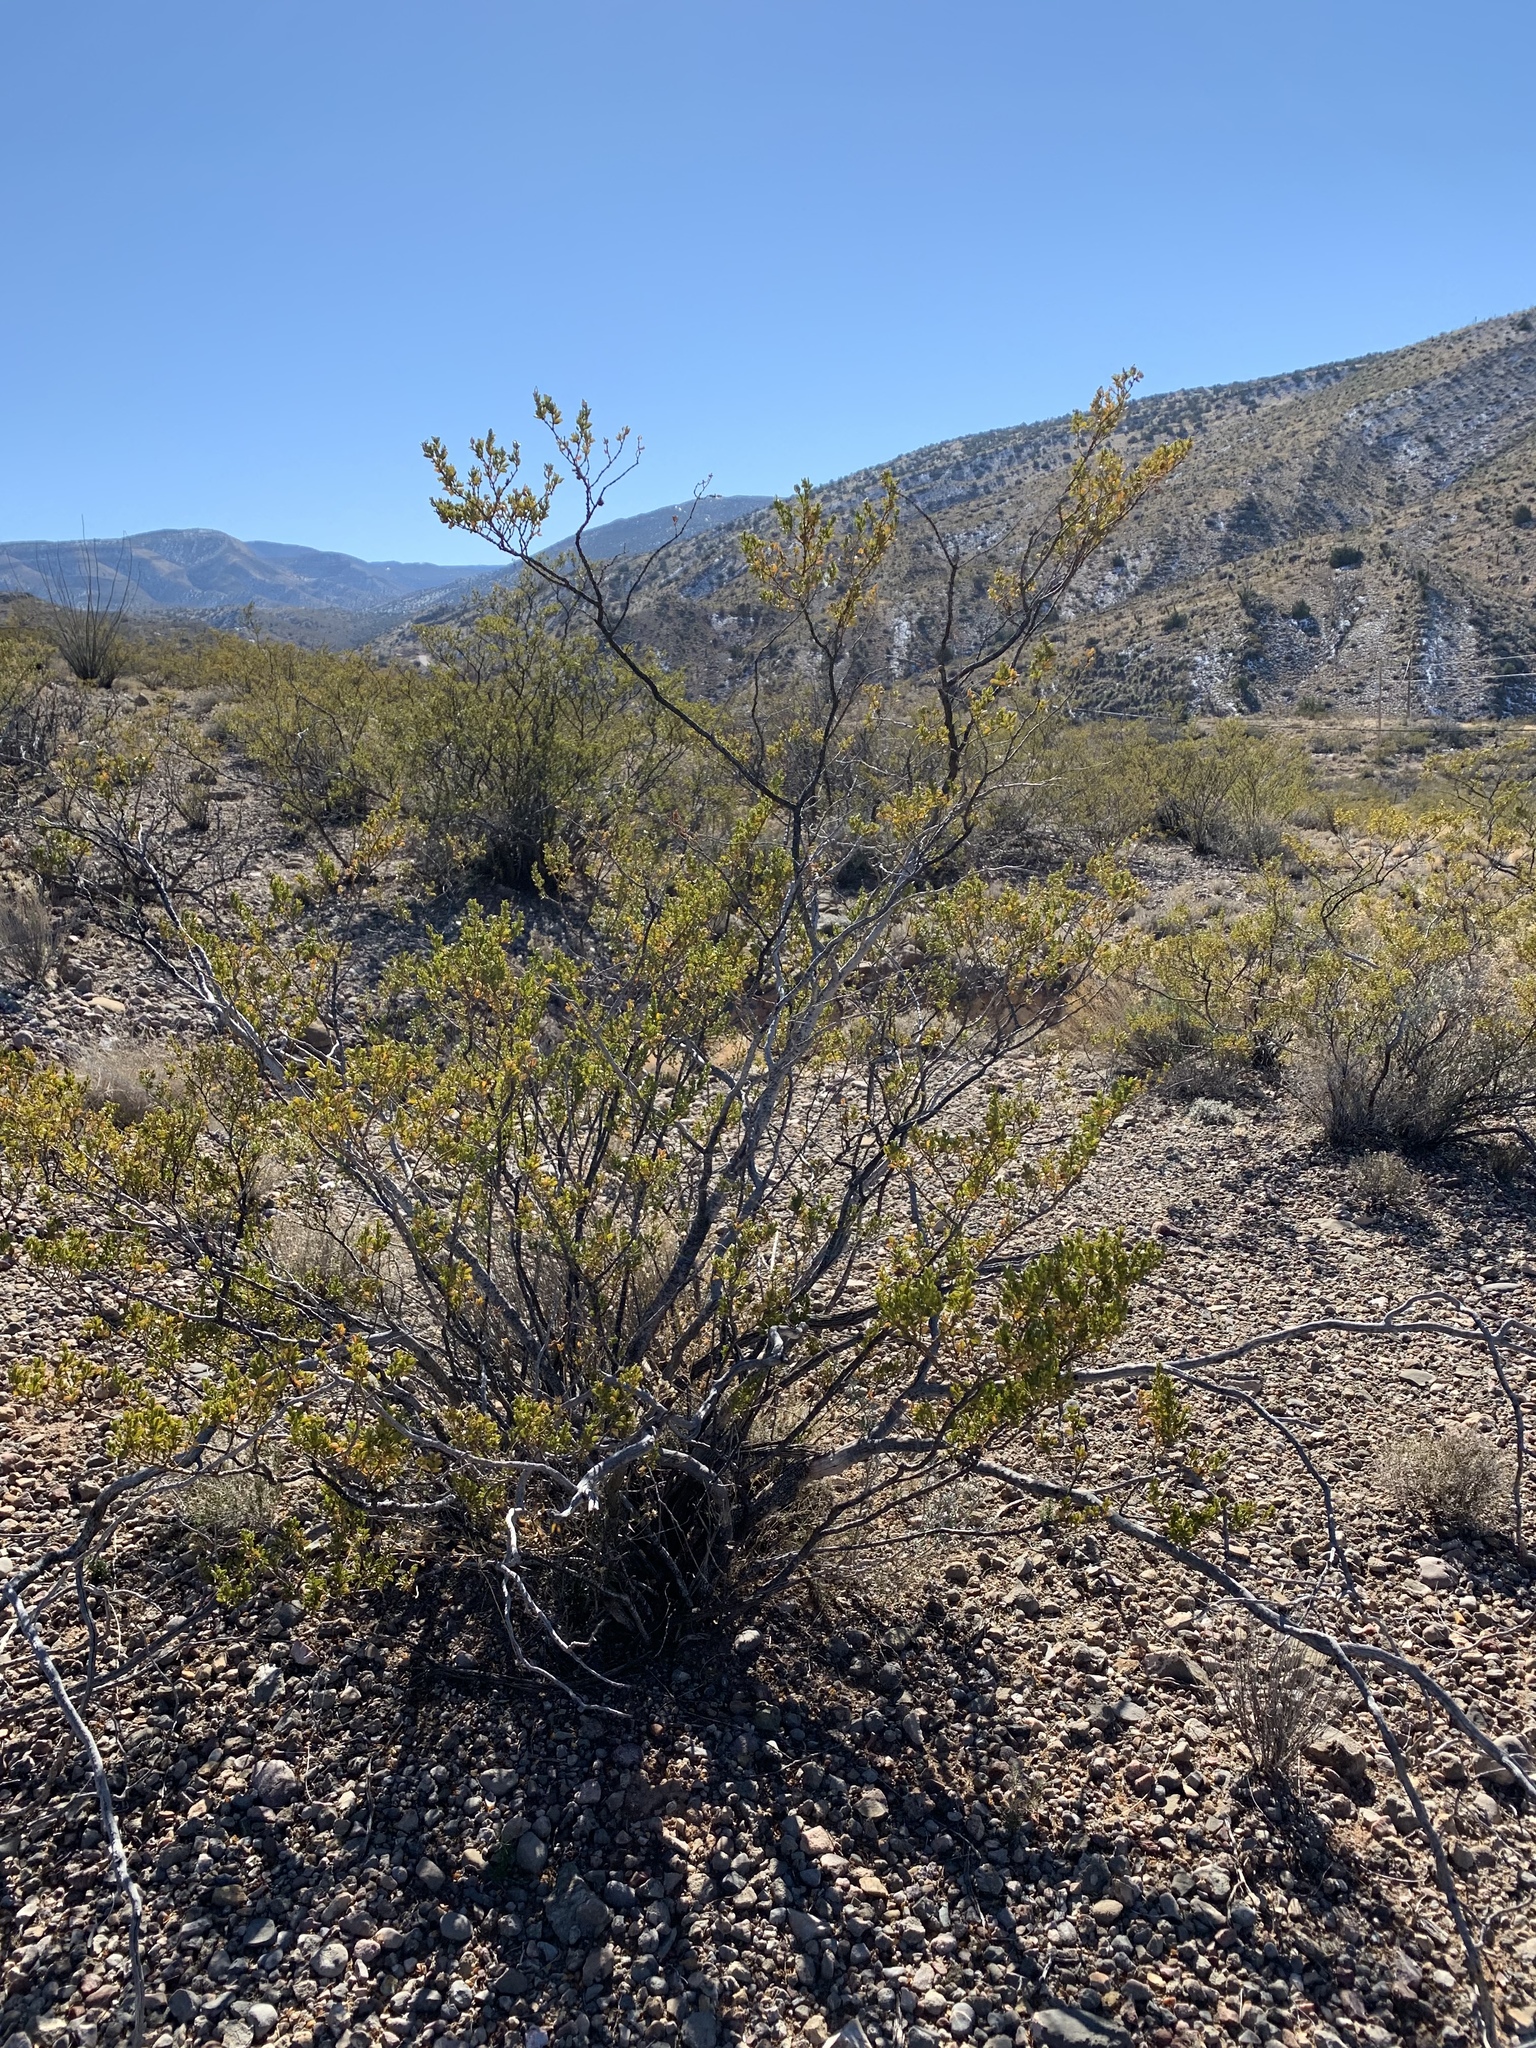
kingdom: Plantae
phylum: Tracheophyta
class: Magnoliopsida
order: Zygophyllales
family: Zygophyllaceae
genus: Larrea
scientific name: Larrea tridentata
